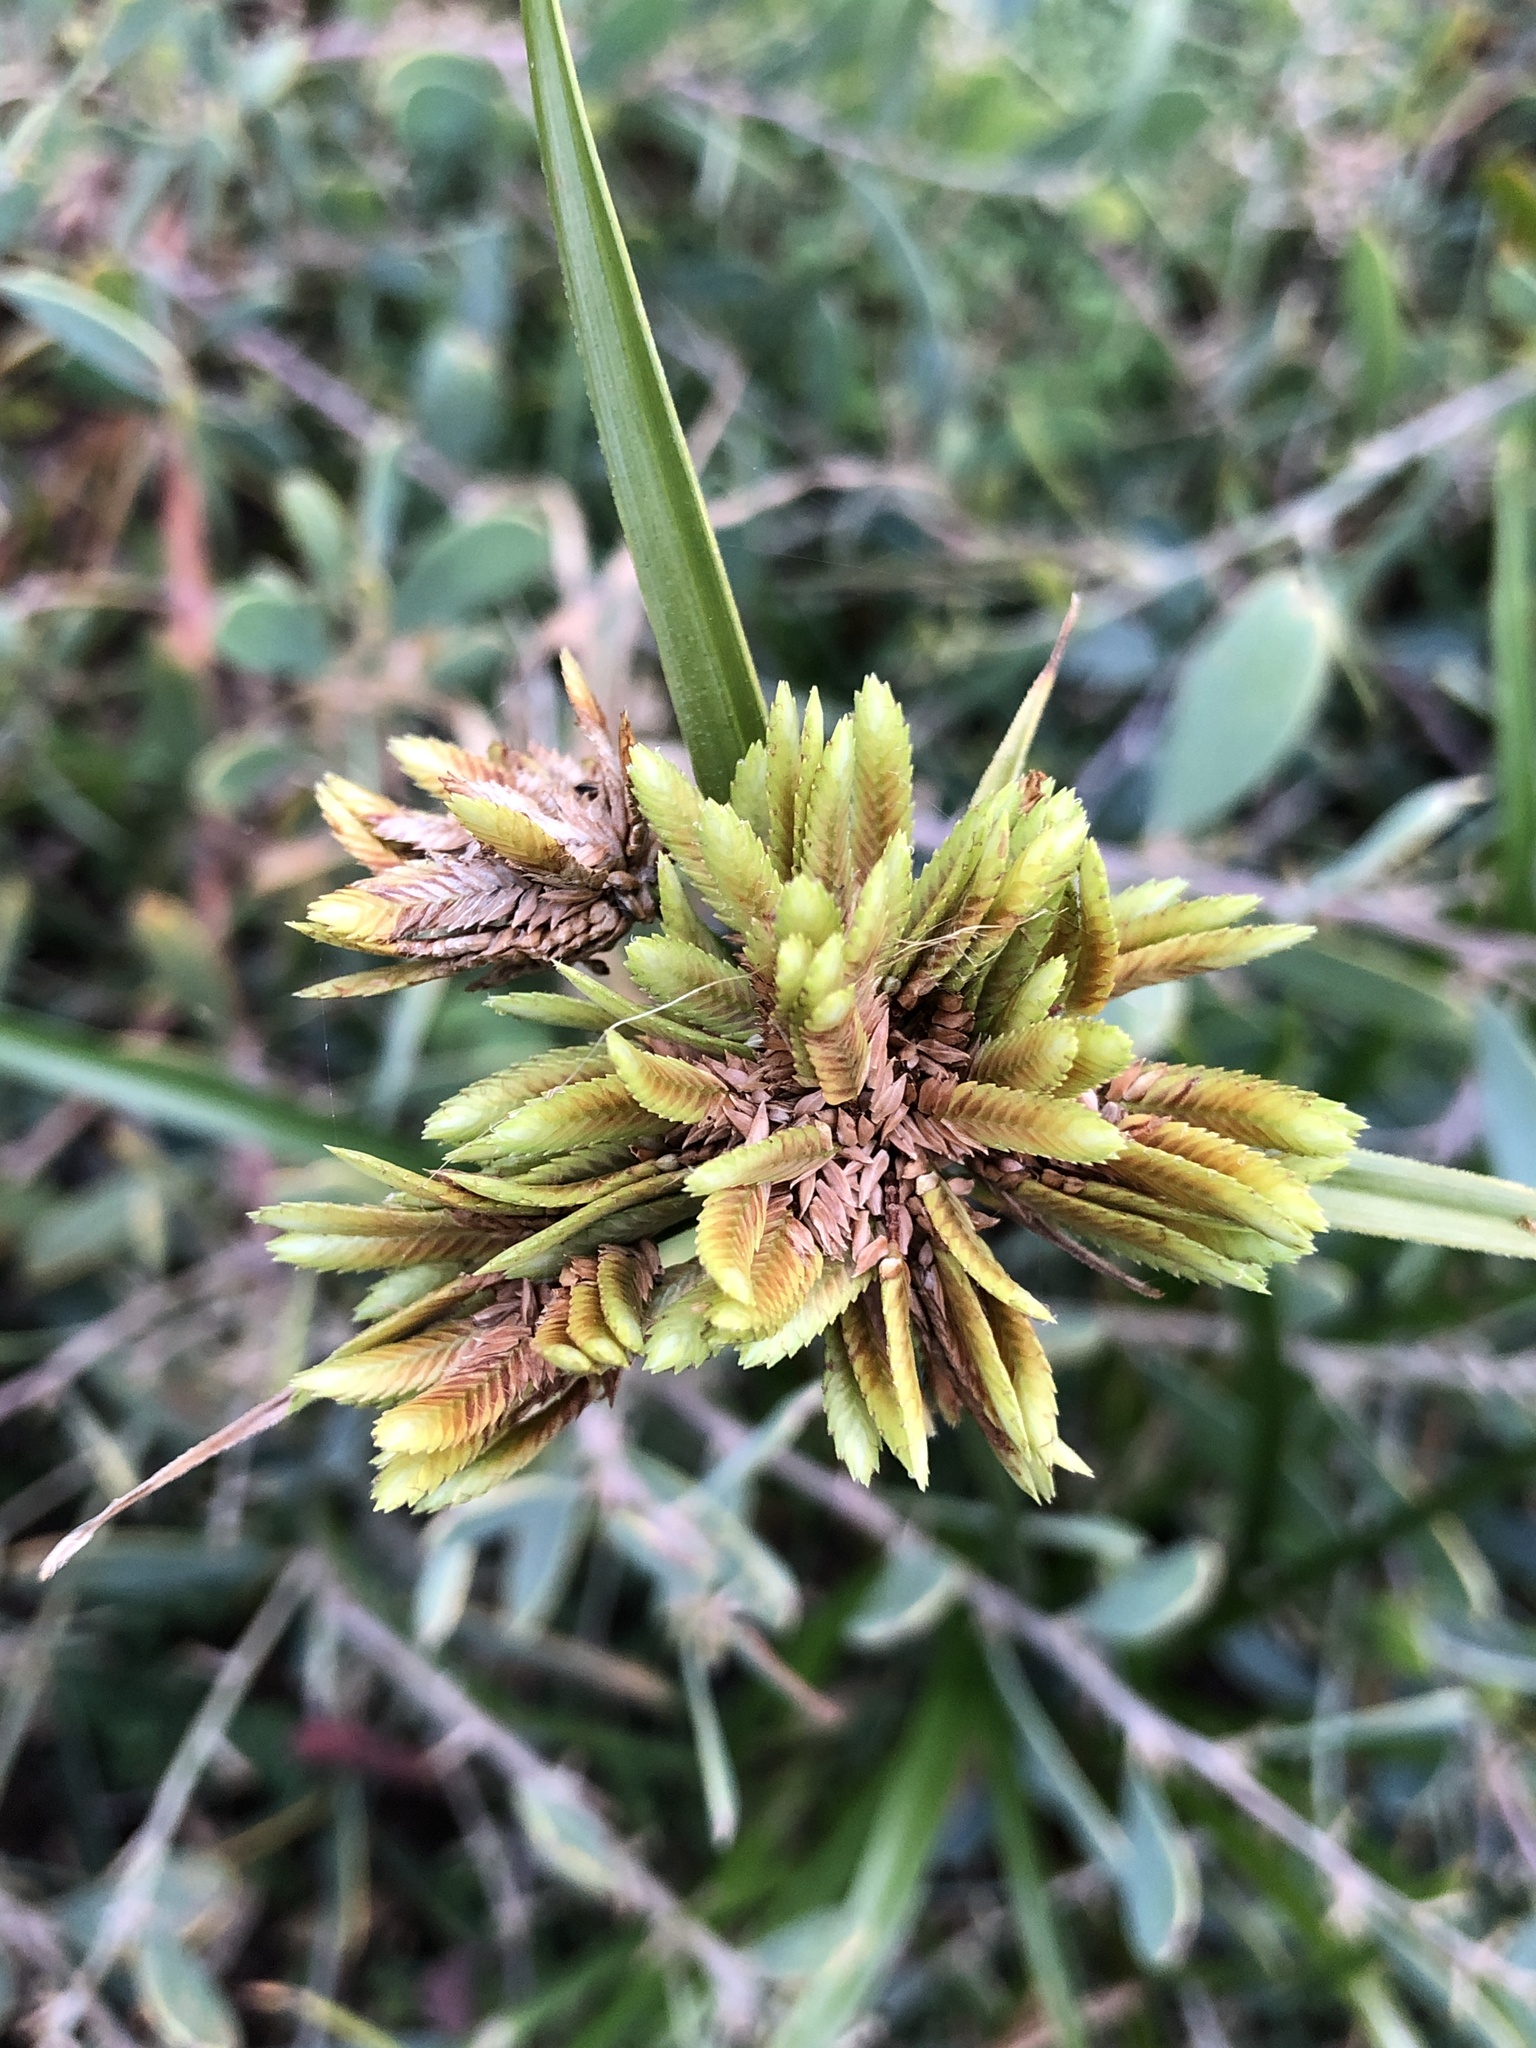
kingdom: Plantae
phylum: Tracheophyta
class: Liliopsida
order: Poales
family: Cyperaceae
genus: Cyperus
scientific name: Cyperus eragrostis
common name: Tall flatsedge
